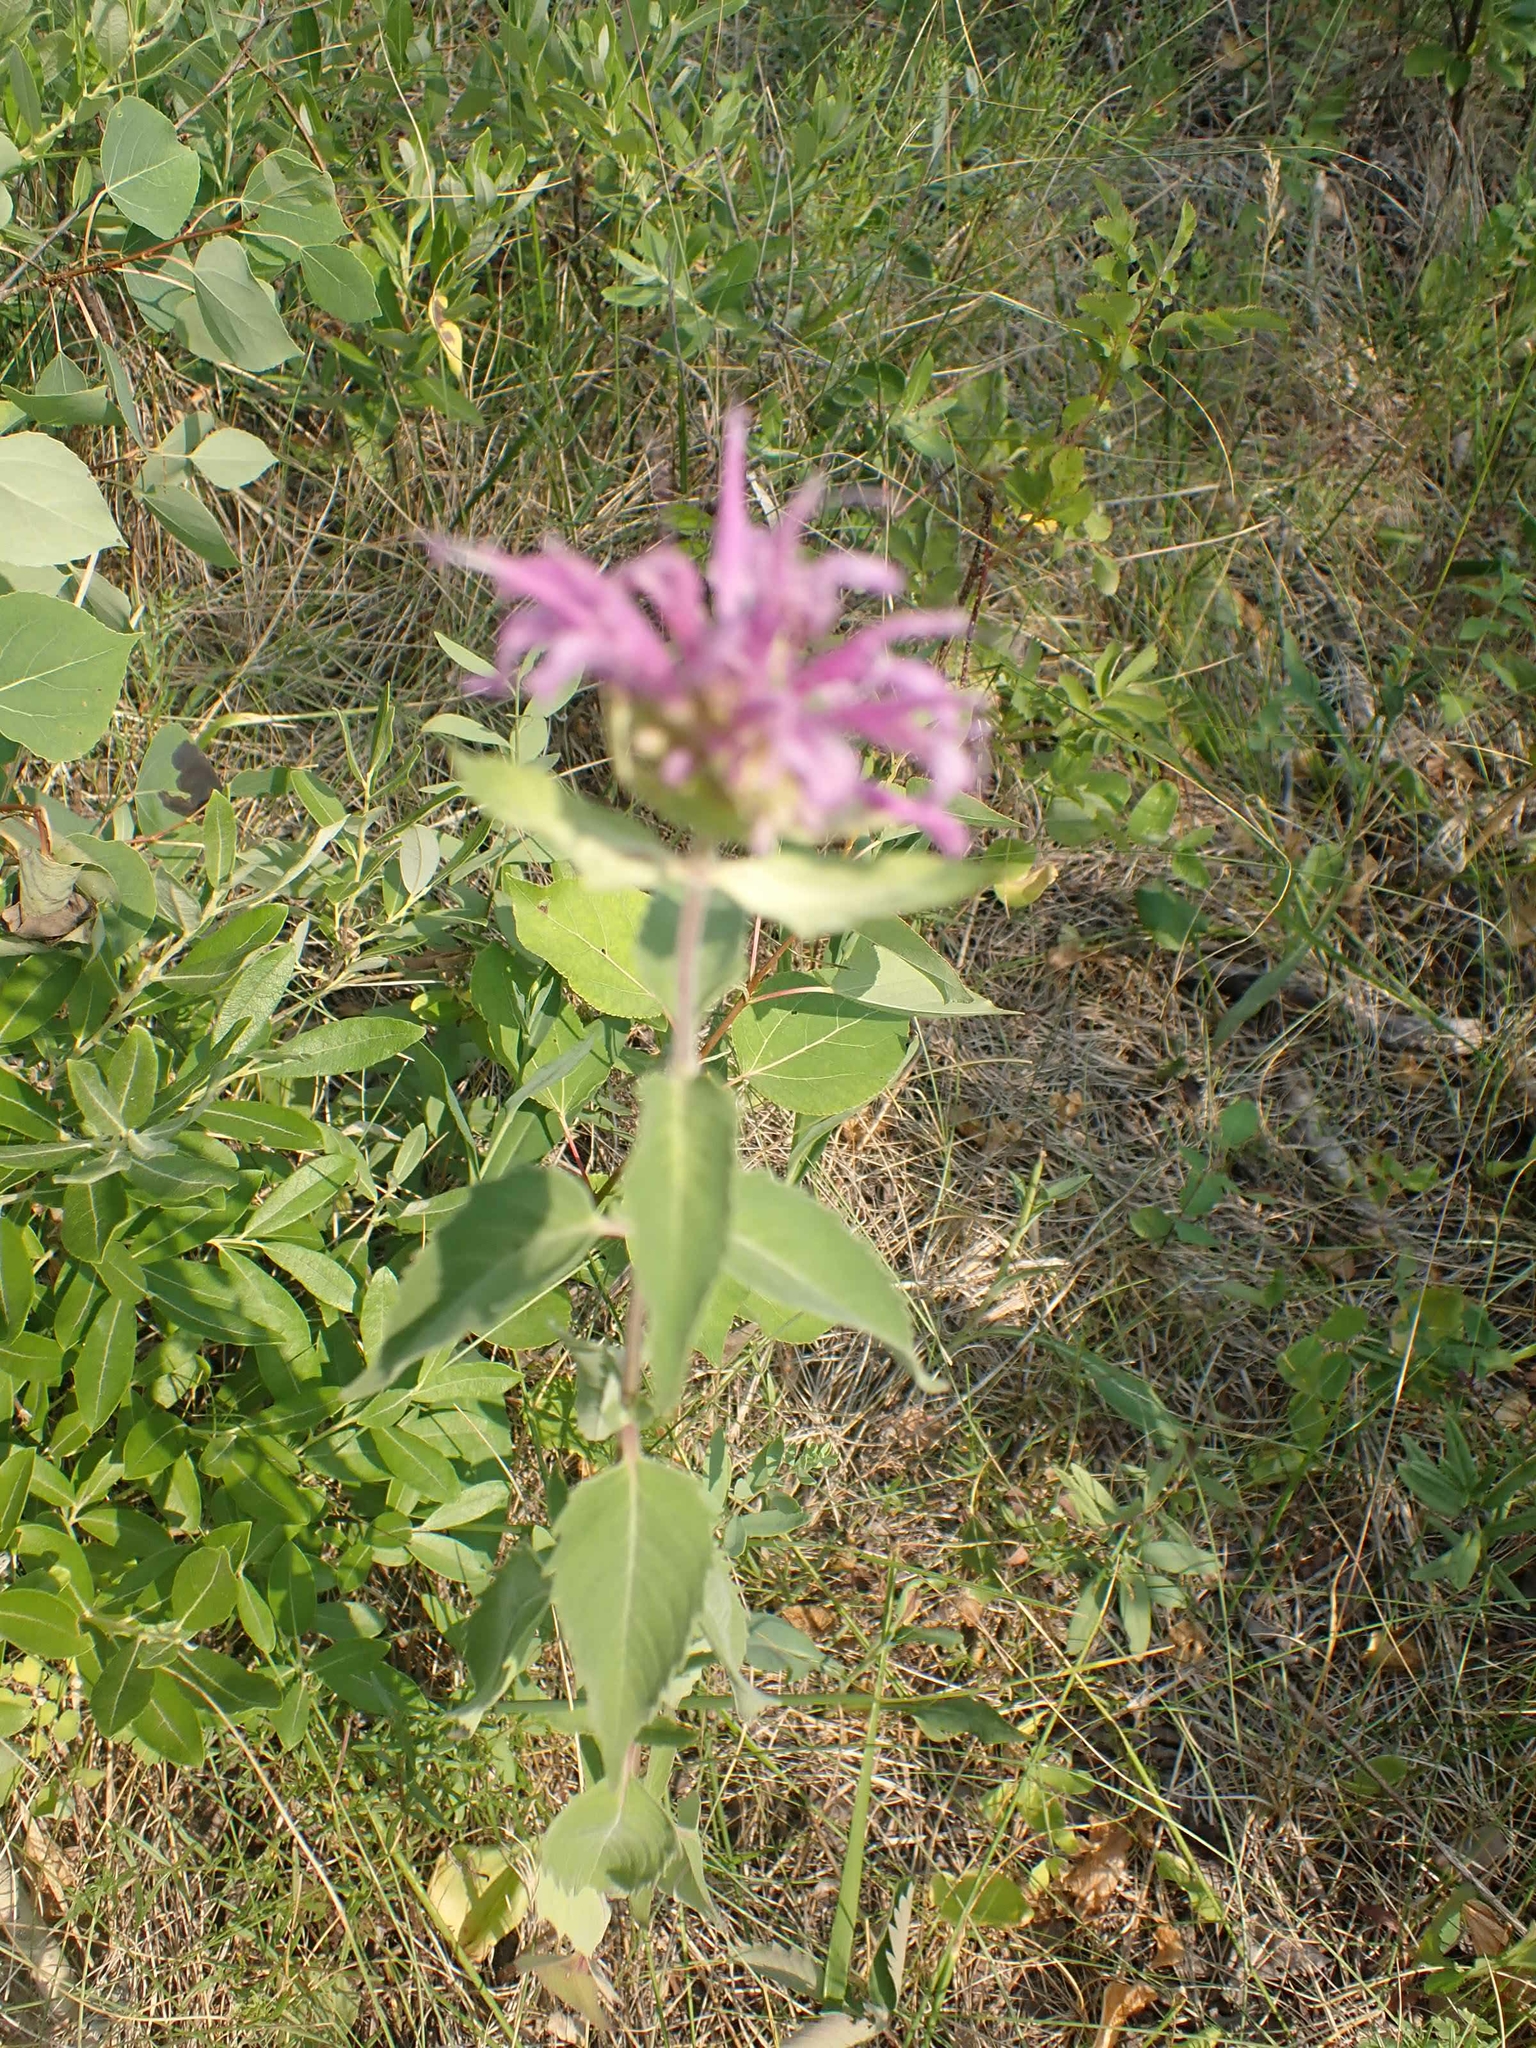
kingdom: Plantae
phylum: Tracheophyta
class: Magnoliopsida
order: Lamiales
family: Lamiaceae
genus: Monarda
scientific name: Monarda fistulosa
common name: Purple beebalm
